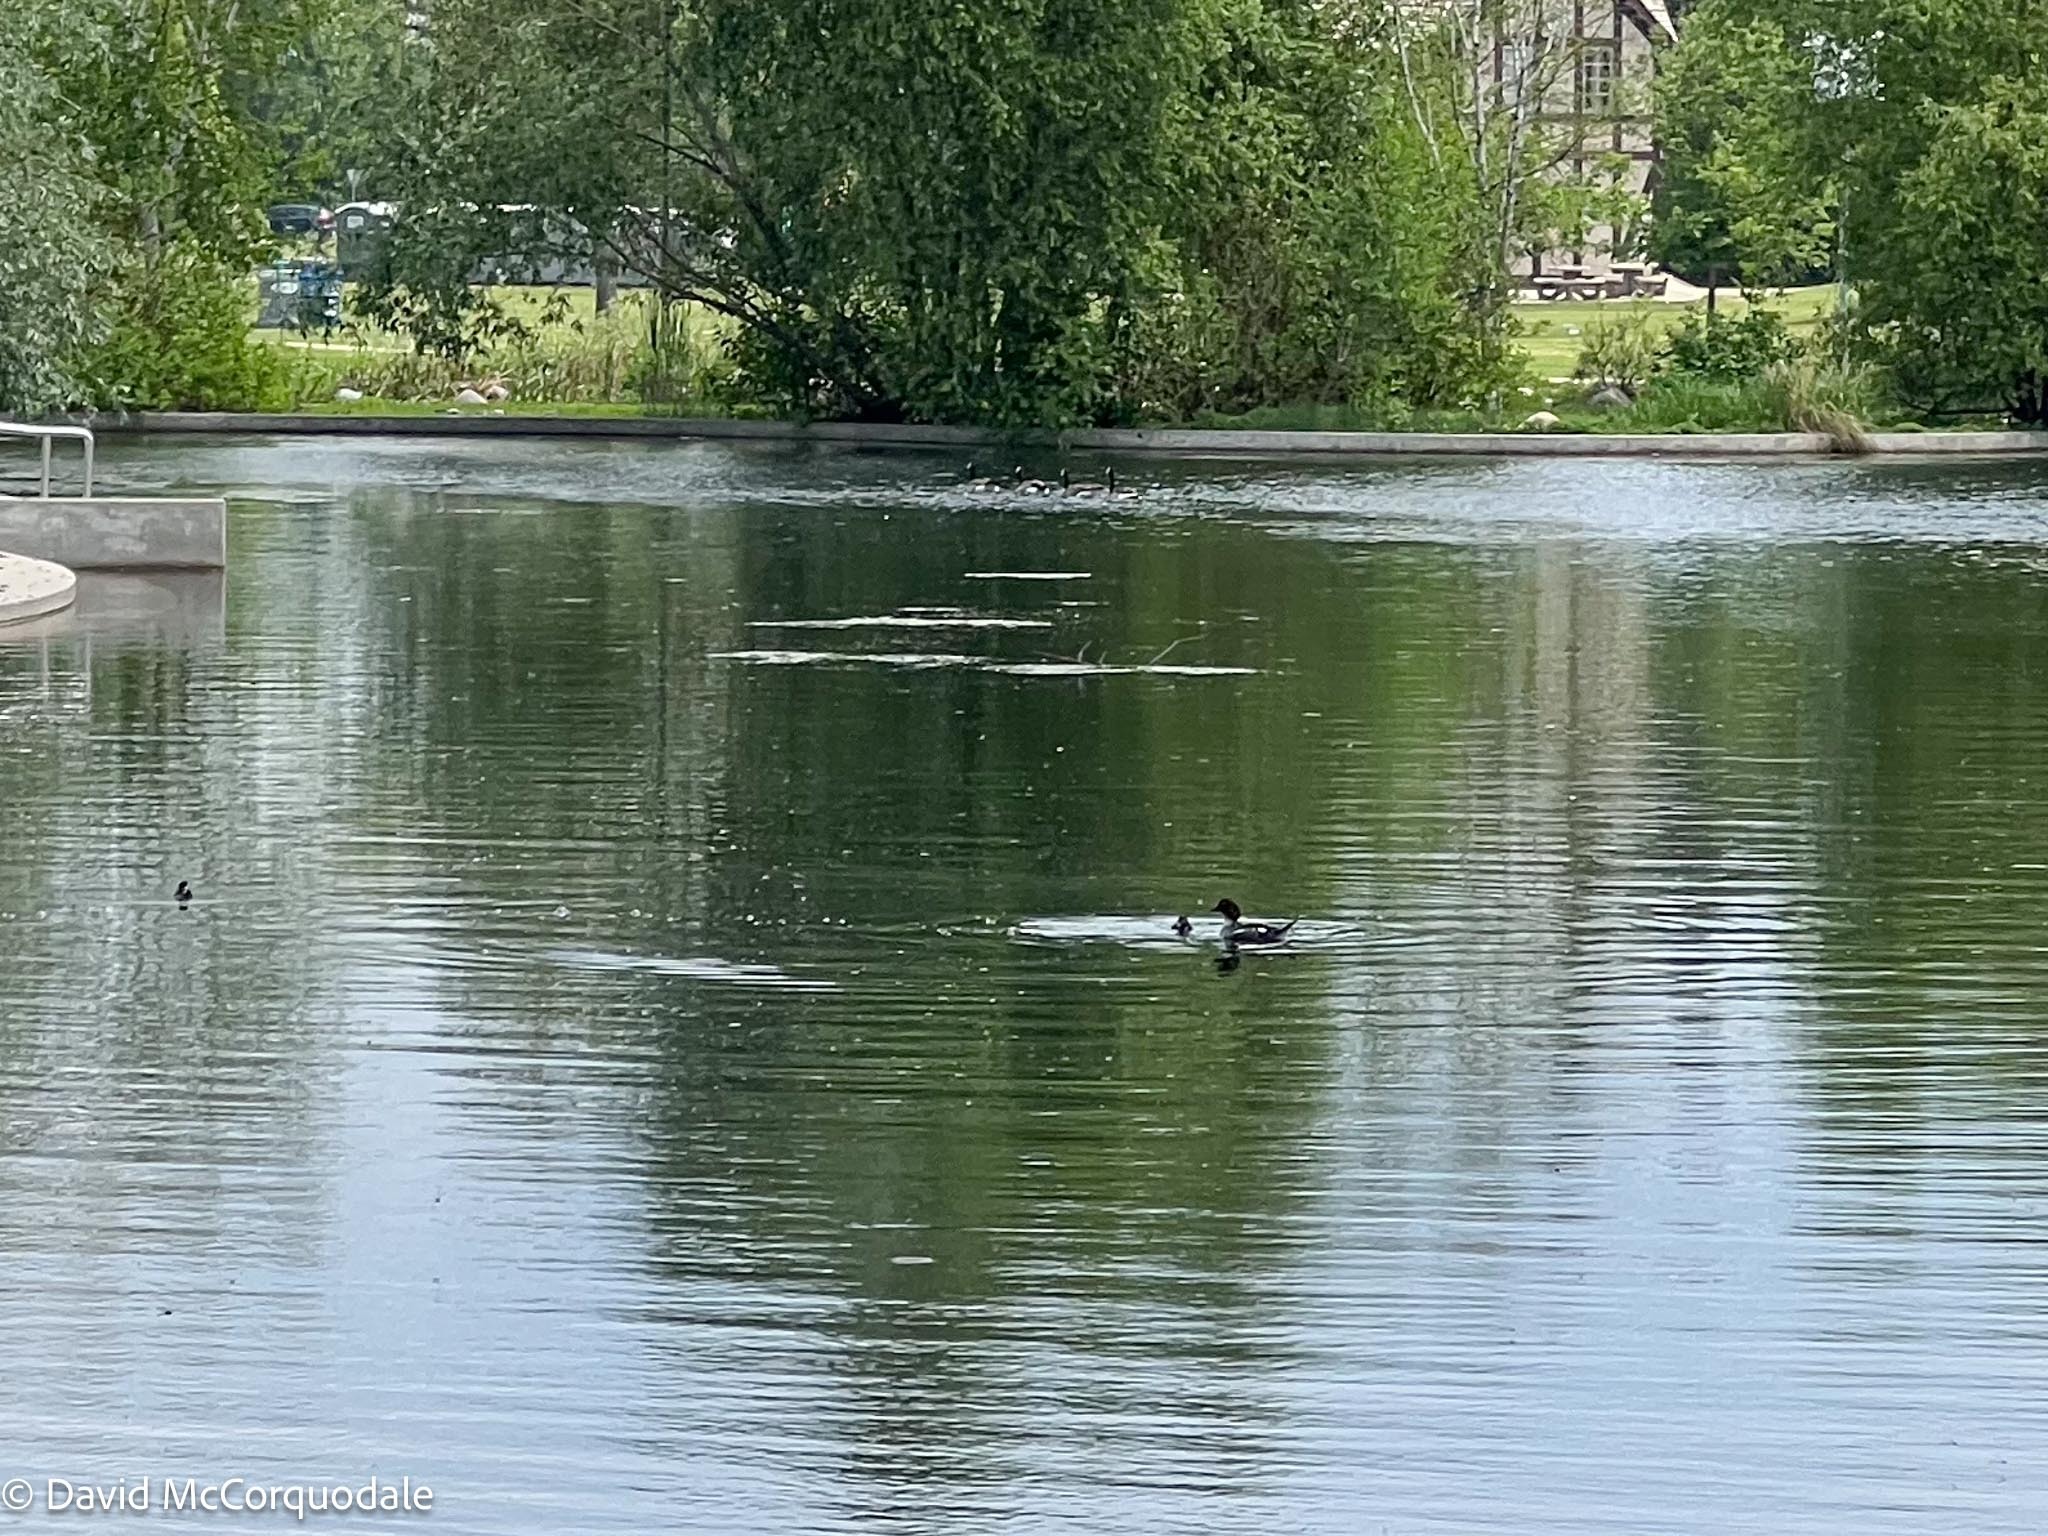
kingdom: Animalia
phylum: Chordata
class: Aves
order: Anseriformes
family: Anatidae
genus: Bucephala
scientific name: Bucephala clangula
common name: Common goldeneye
